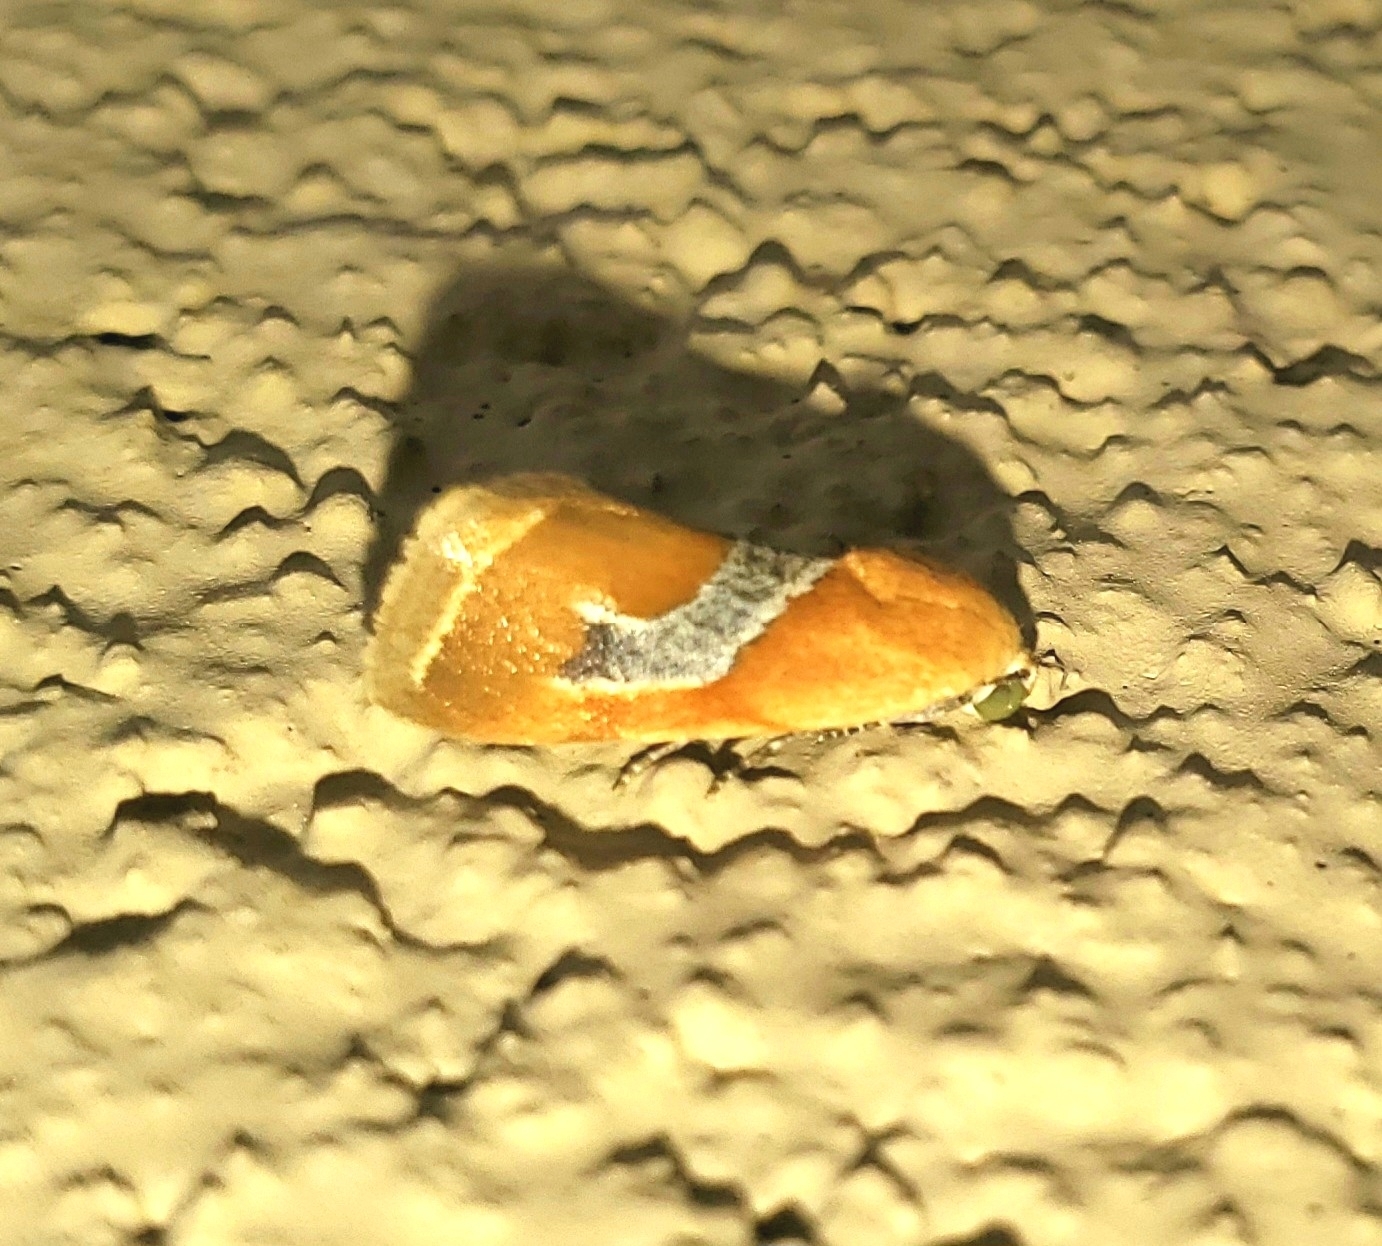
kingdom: Animalia
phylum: Arthropoda
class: Insecta
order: Lepidoptera
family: Noctuidae
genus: Ponometia
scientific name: Ponometia venustula
